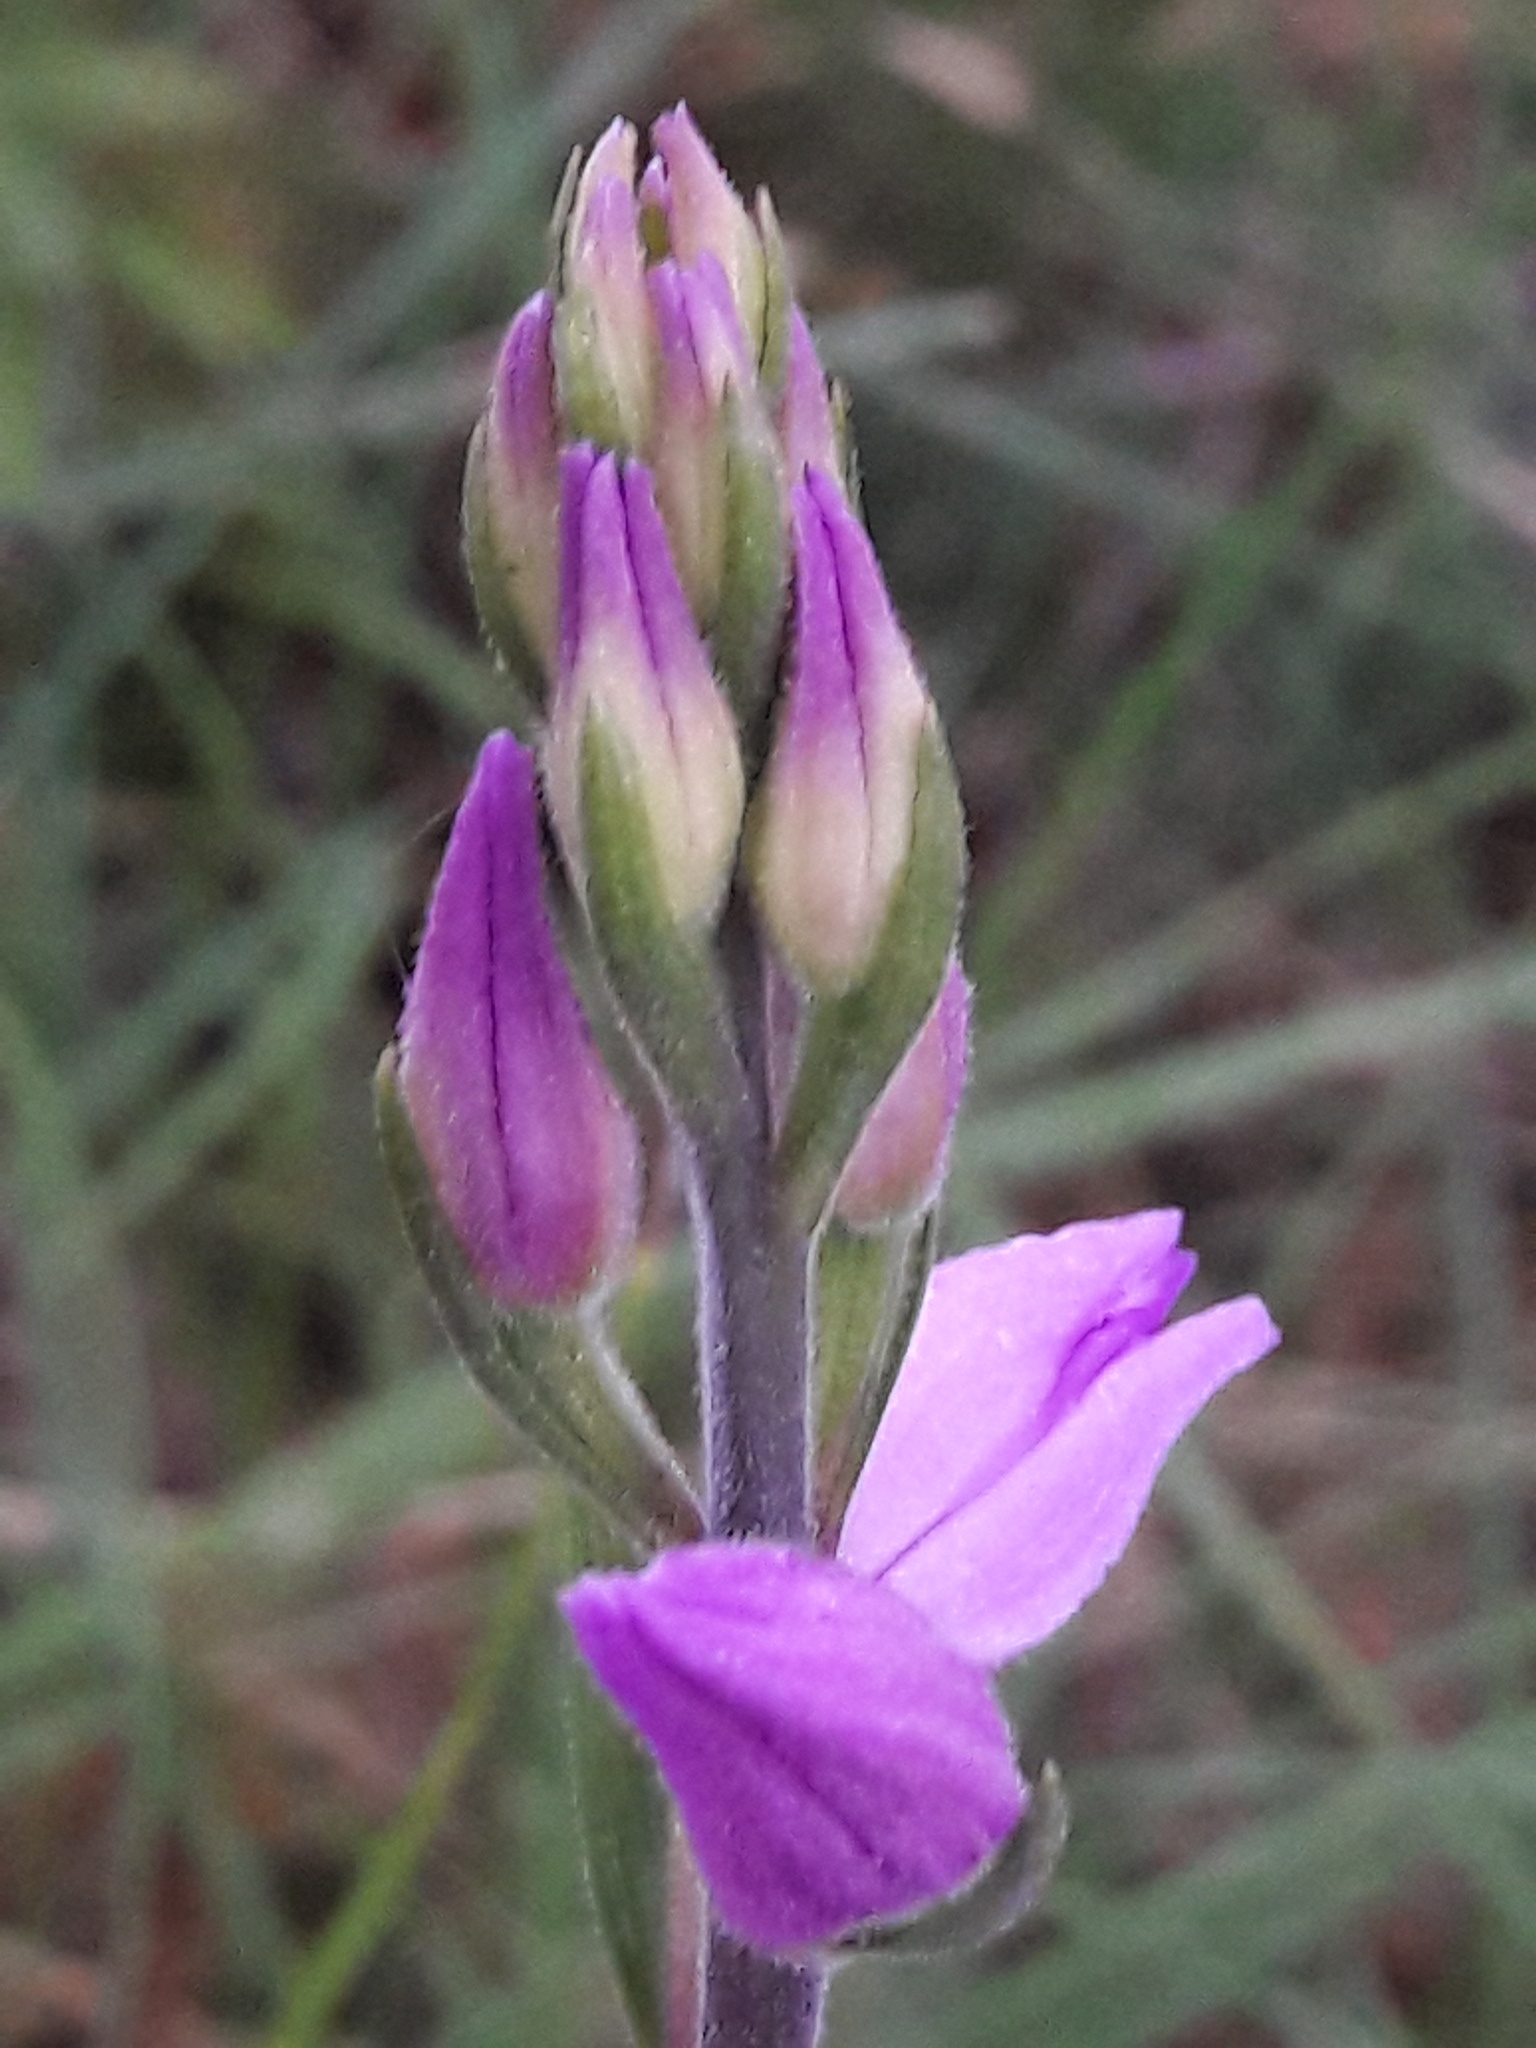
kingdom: Plantae
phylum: Tracheophyta
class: Liliopsida
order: Asparagales
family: Orchidaceae
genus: Cephalanthera
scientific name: Cephalanthera rubra
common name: Red helleborine
